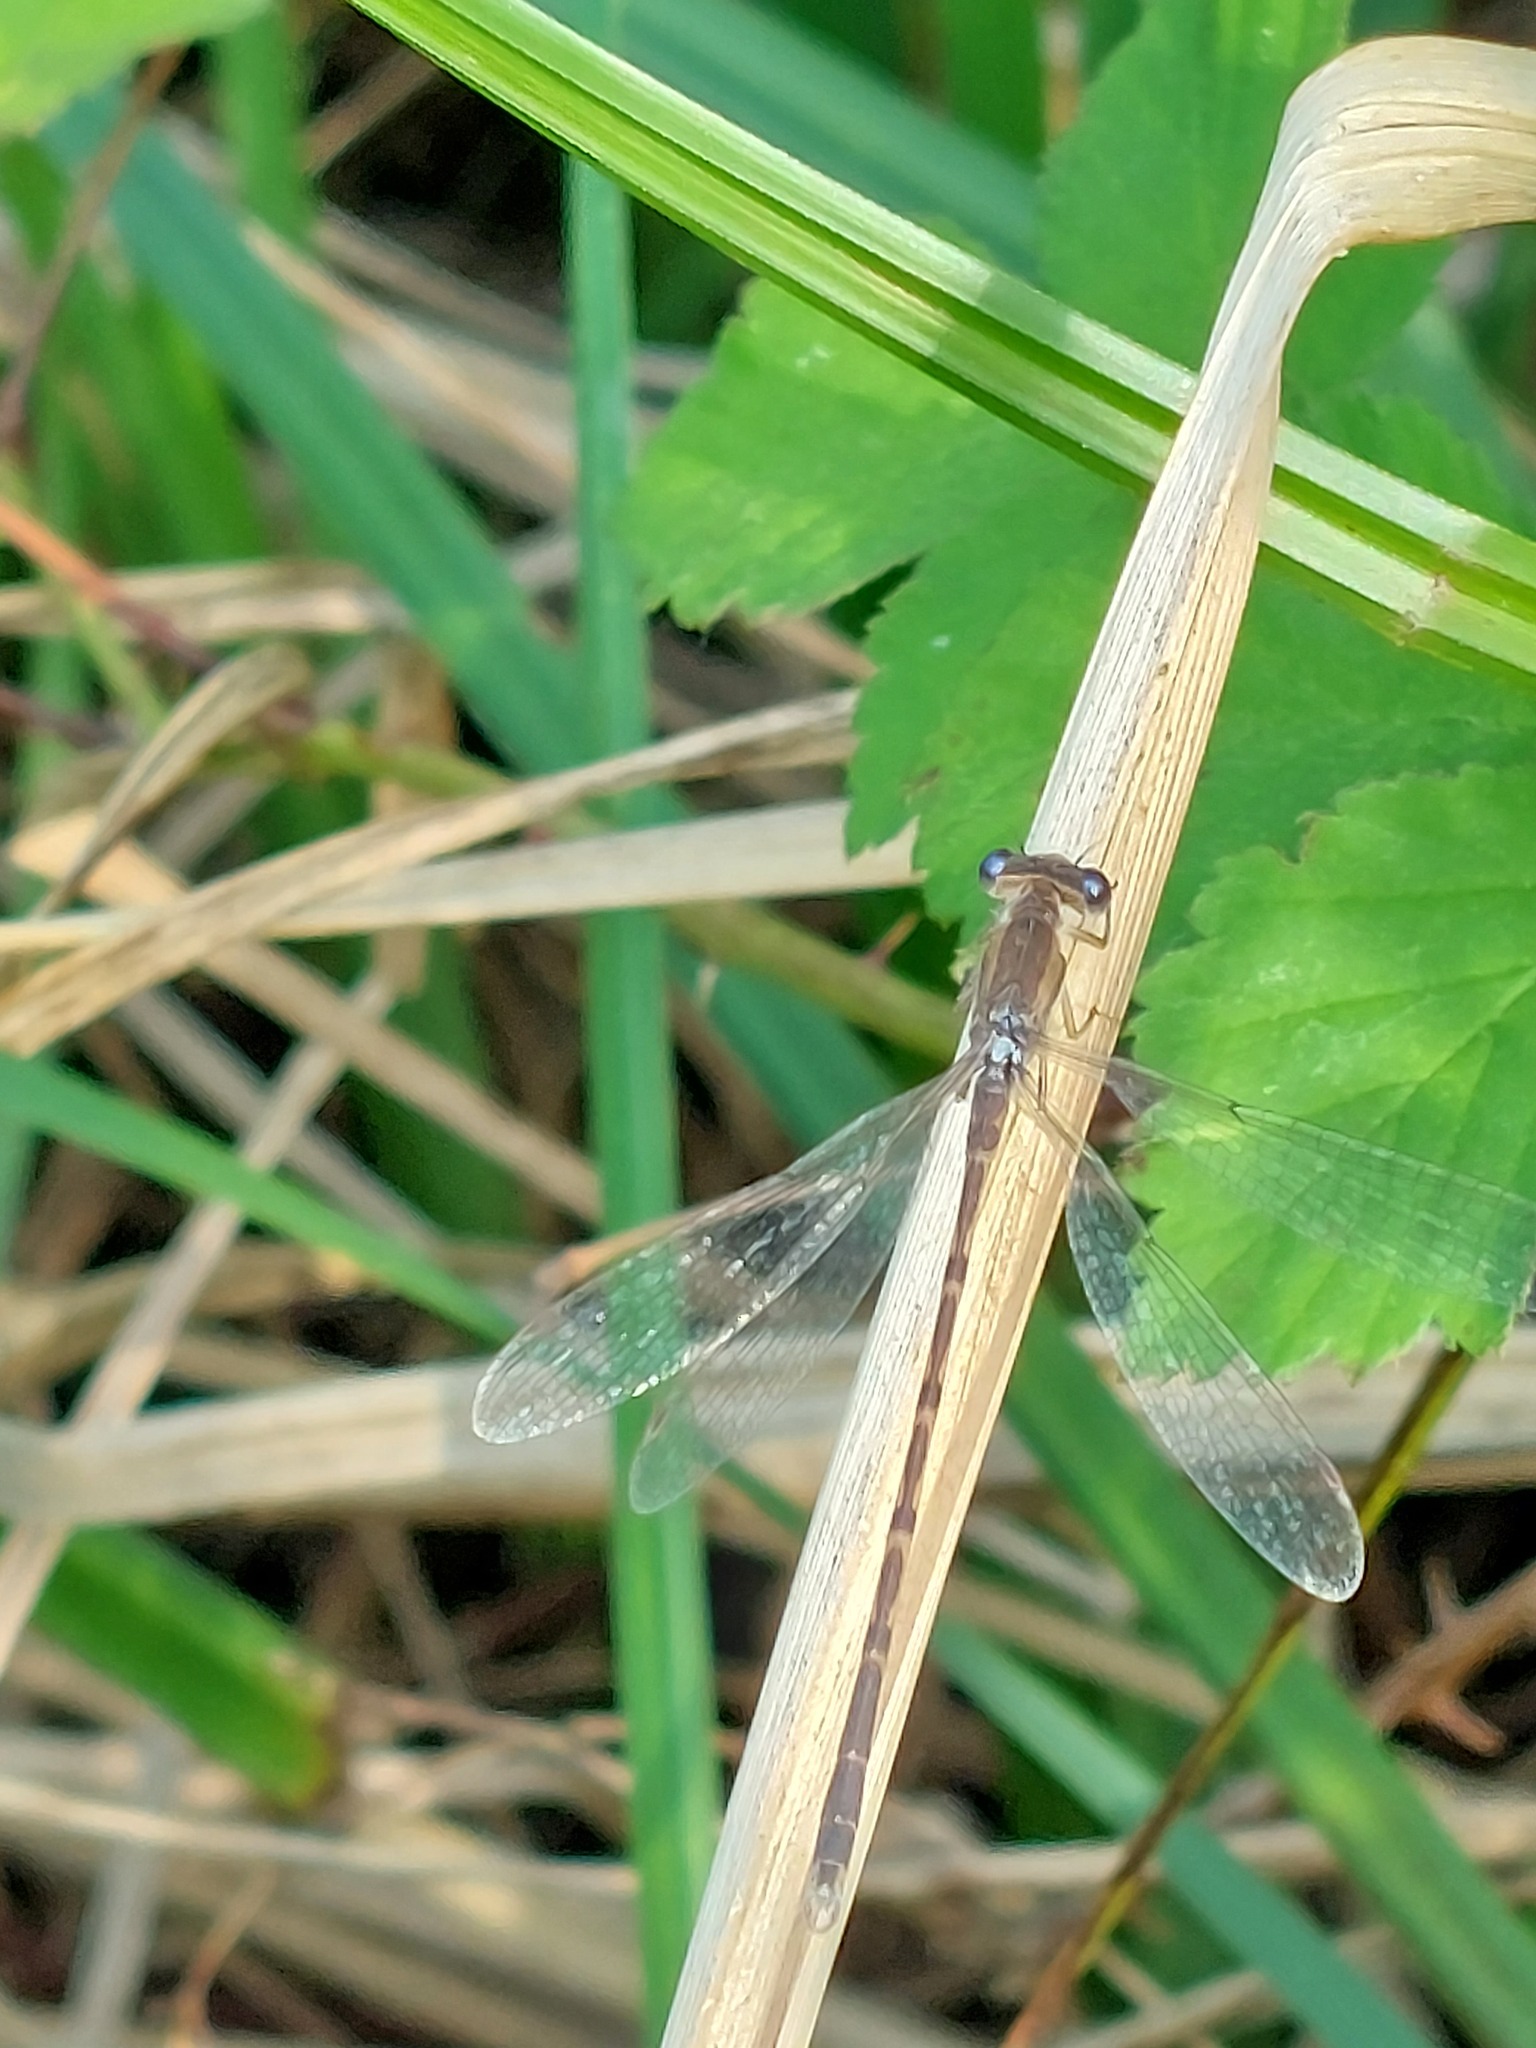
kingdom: Animalia
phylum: Arthropoda
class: Insecta
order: Odonata
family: Lestidae
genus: Sympecma
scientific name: Sympecma fusca
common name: Common winter damsel
